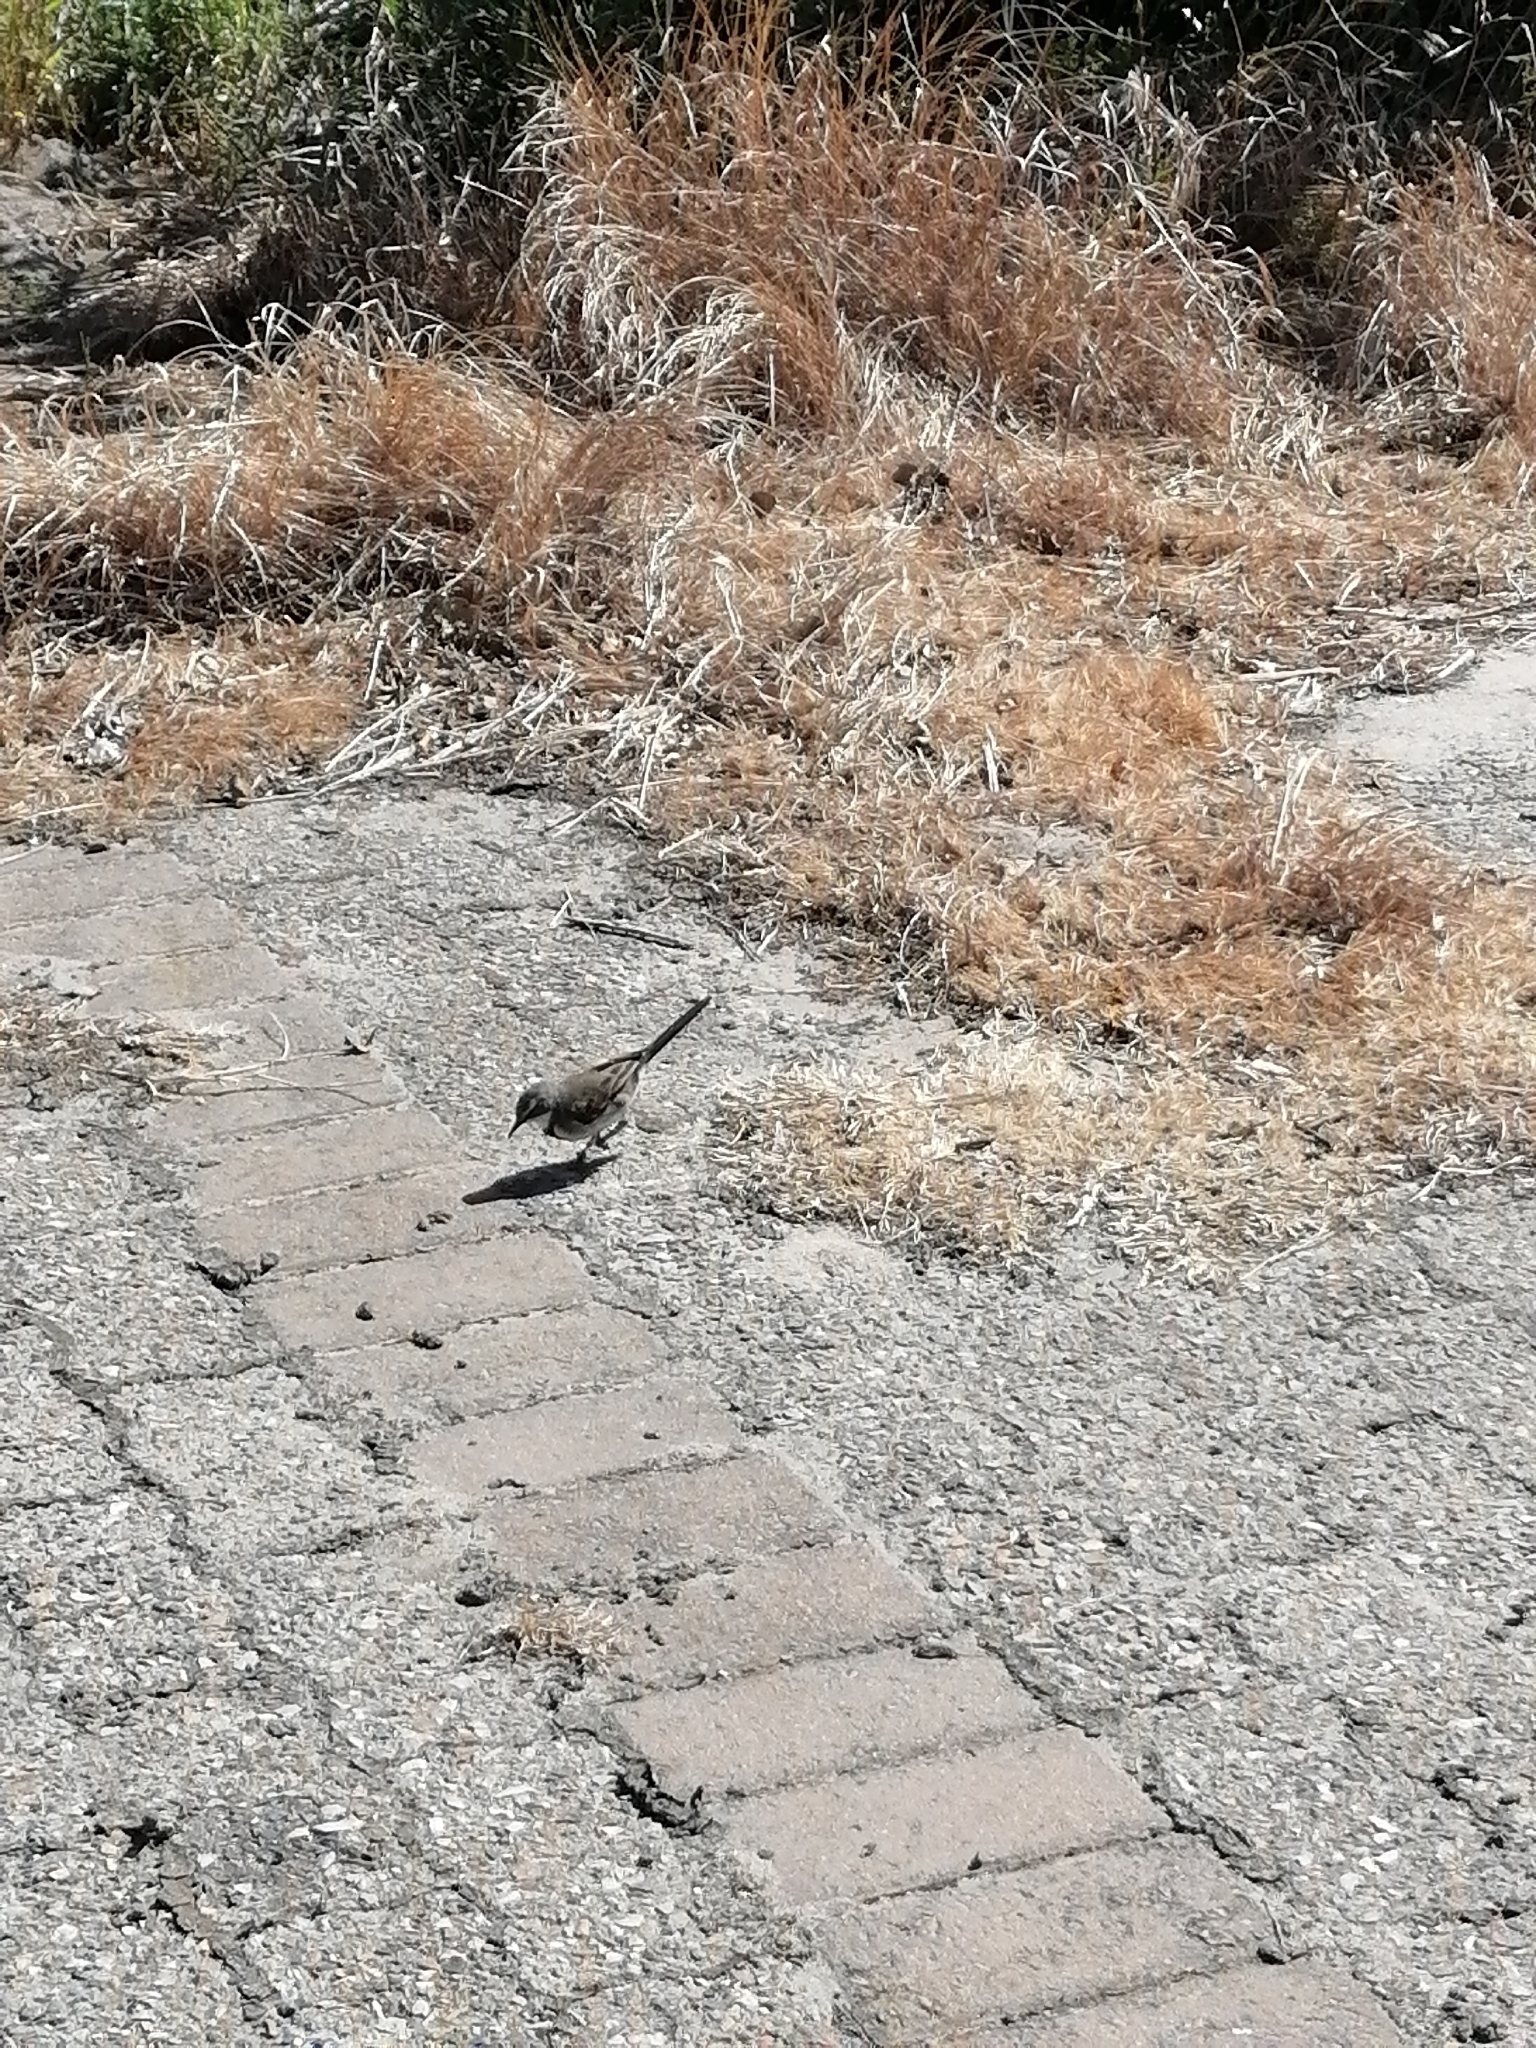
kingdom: Animalia
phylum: Chordata
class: Aves
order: Passeriformes
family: Motacillidae
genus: Motacilla
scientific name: Motacilla capensis
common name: Cape wagtail
